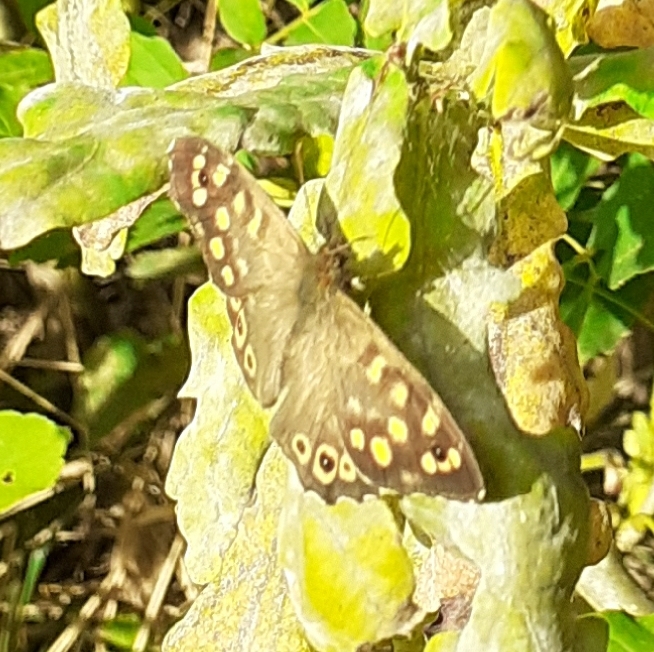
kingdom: Animalia
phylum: Arthropoda
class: Insecta
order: Lepidoptera
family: Nymphalidae
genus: Pararge
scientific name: Pararge aegeria
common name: Speckled wood
